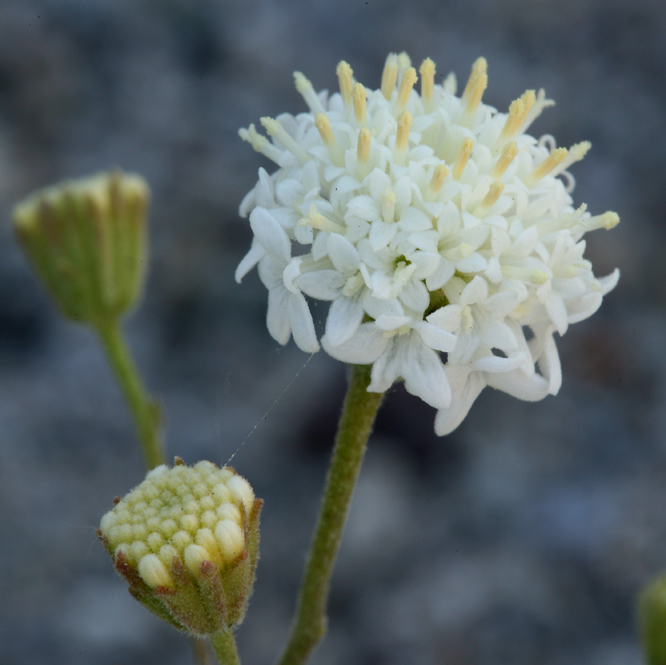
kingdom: Plantae
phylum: Tracheophyta
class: Magnoliopsida
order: Asterales
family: Asteraceae
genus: Chaenactis
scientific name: Chaenactis stevioides
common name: Desert pincushion
